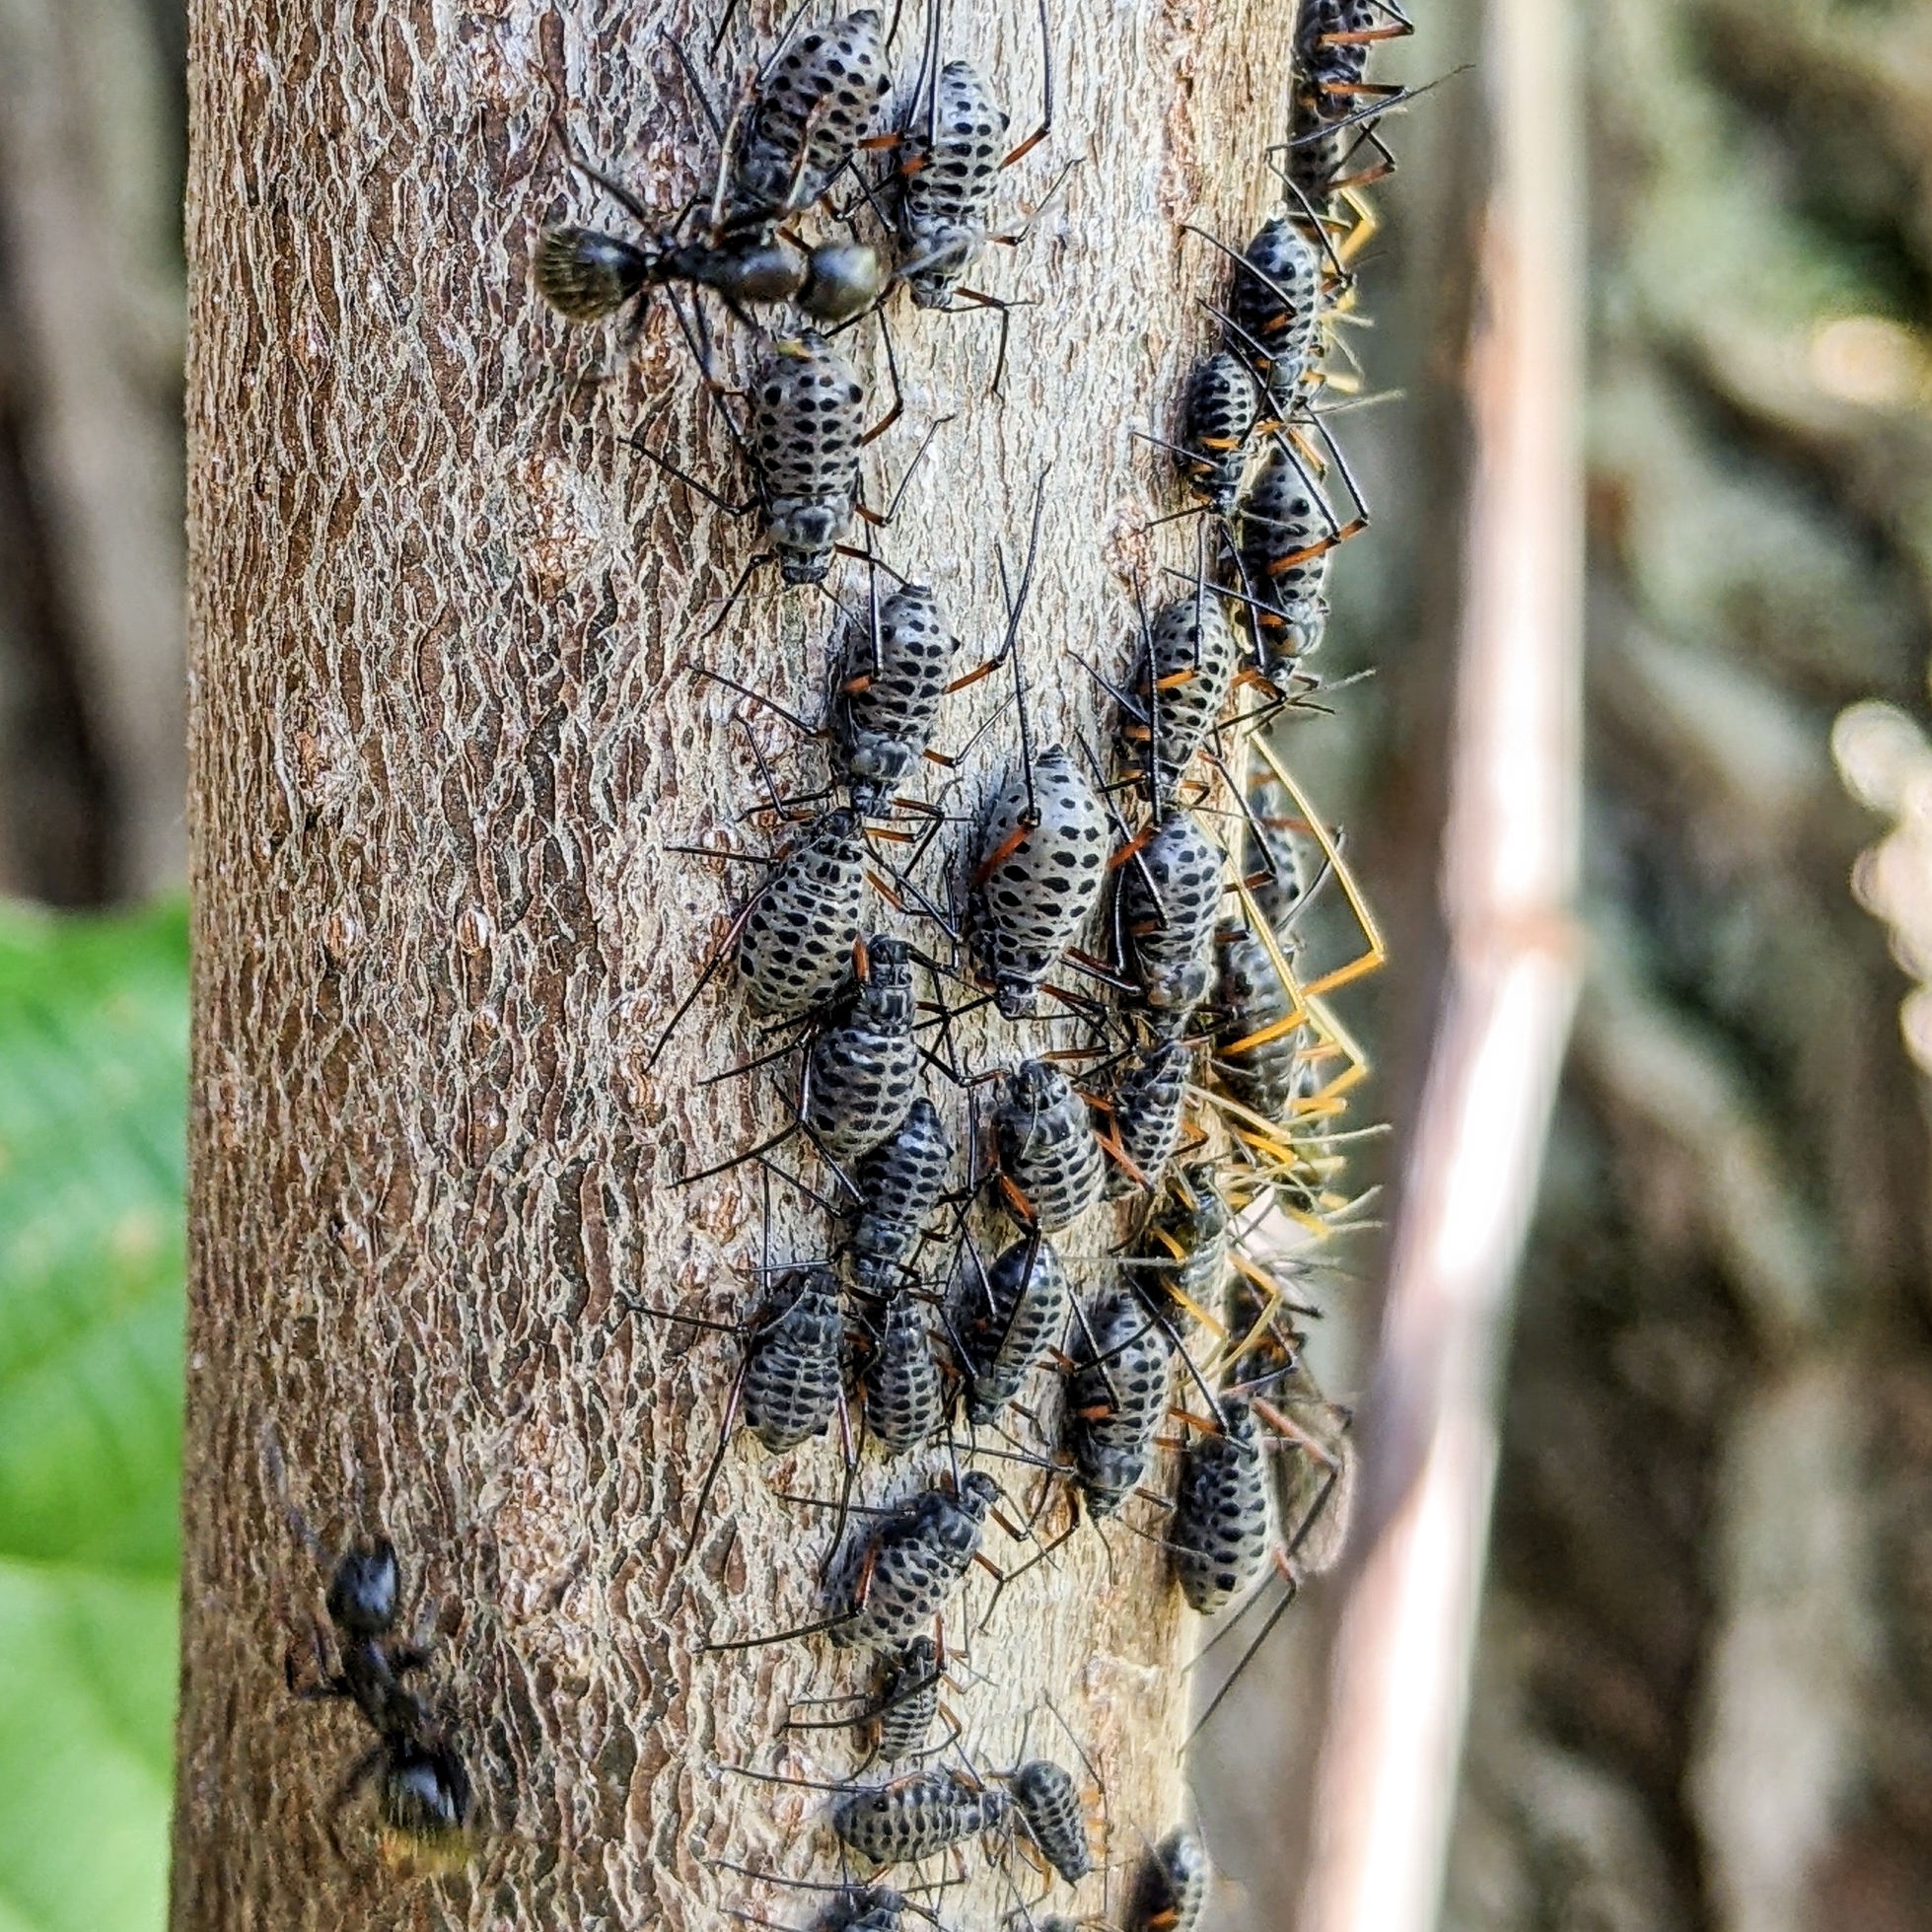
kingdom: Animalia
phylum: Arthropoda
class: Insecta
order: Hemiptera
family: Aphididae
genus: Longistigma
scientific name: Longistigma caryae
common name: Giant bark aphid
